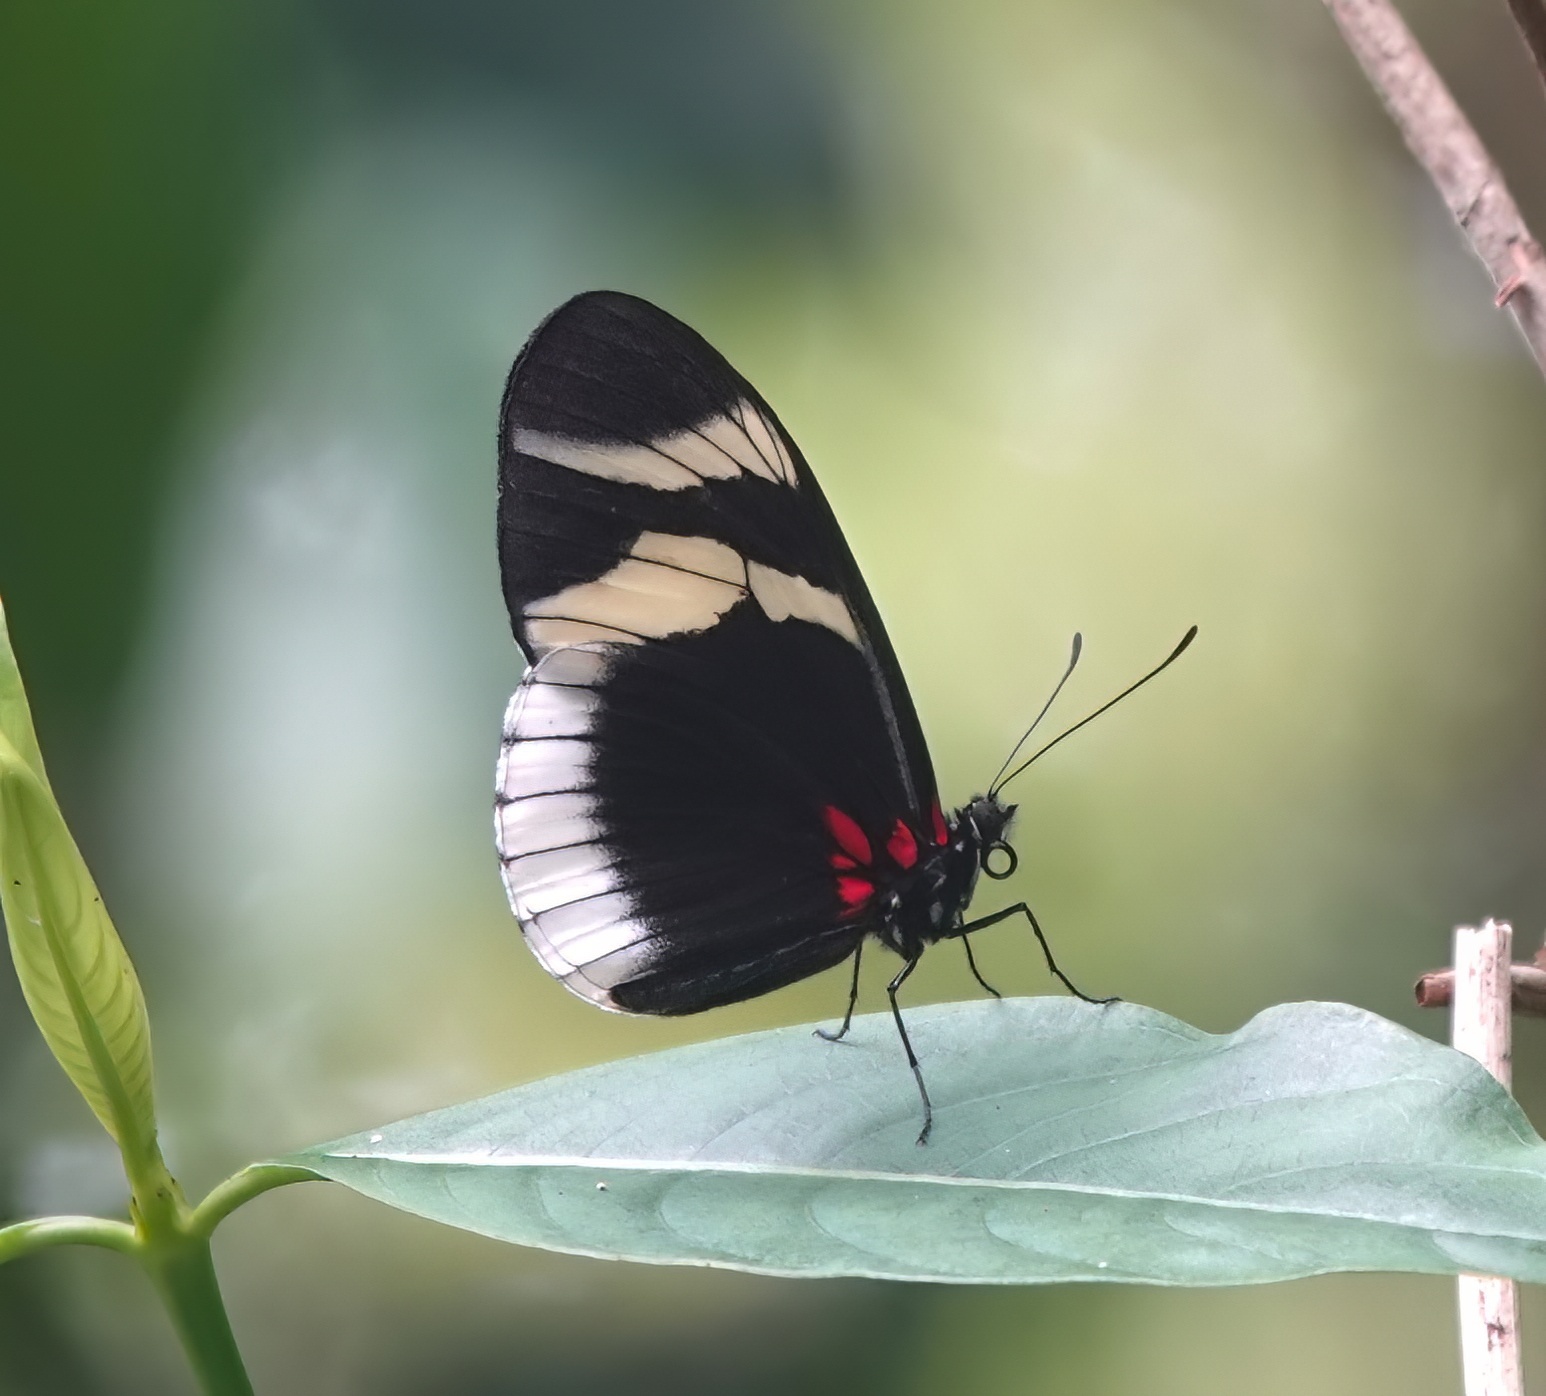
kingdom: Animalia
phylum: Arthropoda
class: Insecta
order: Lepidoptera
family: Nymphalidae
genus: Heliconius
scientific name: Heliconius eleuchia
